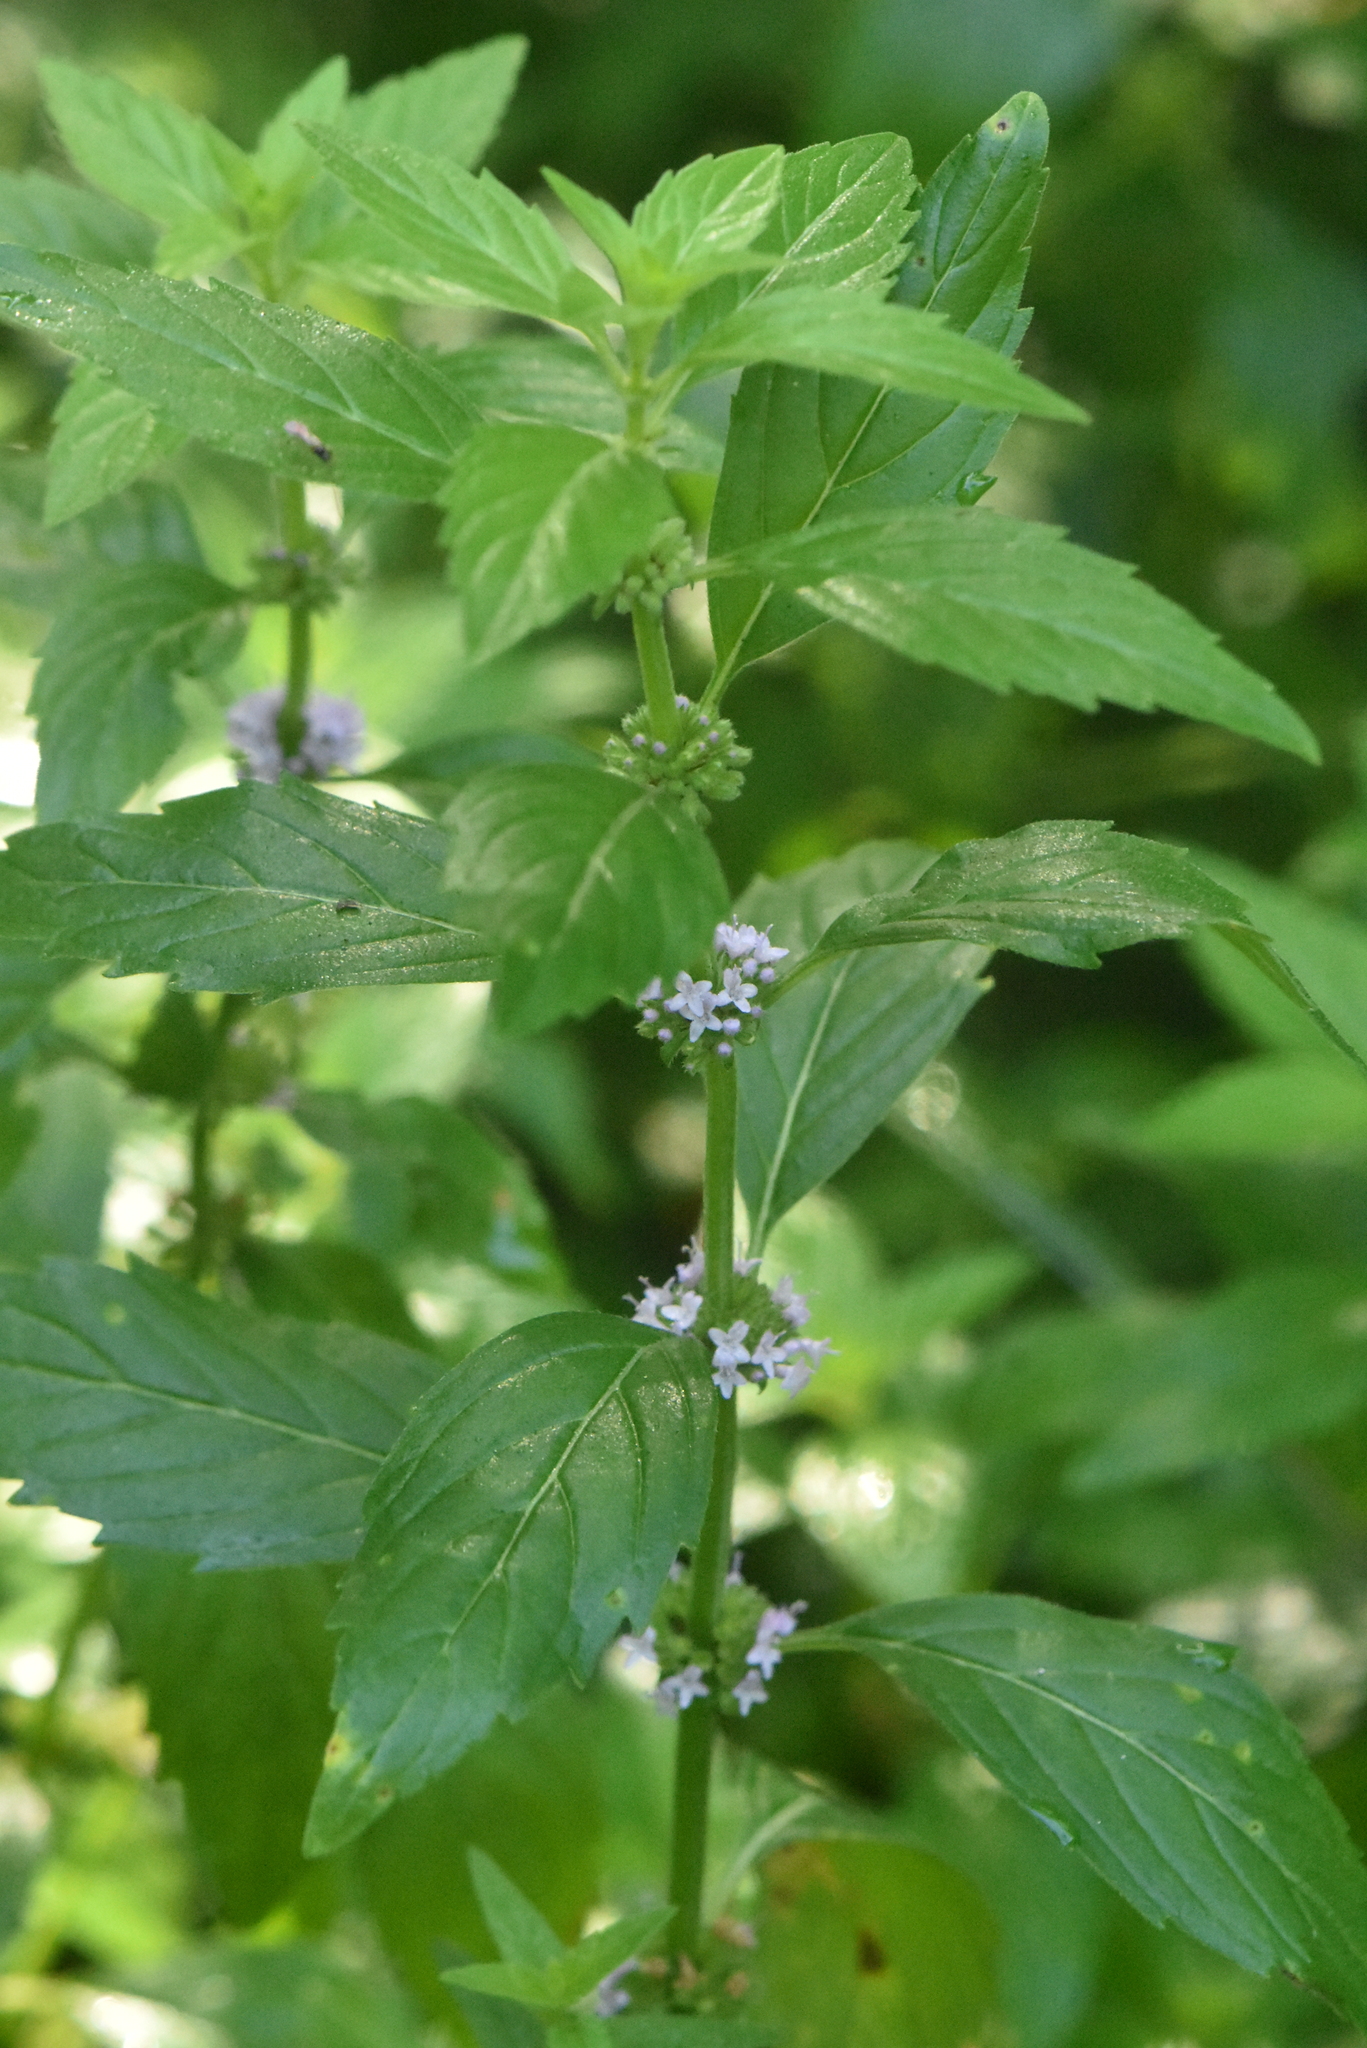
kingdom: Plantae
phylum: Tracheophyta
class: Magnoliopsida
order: Lamiales
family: Lamiaceae
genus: Mentha
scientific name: Mentha arvensis
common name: Corn mint
